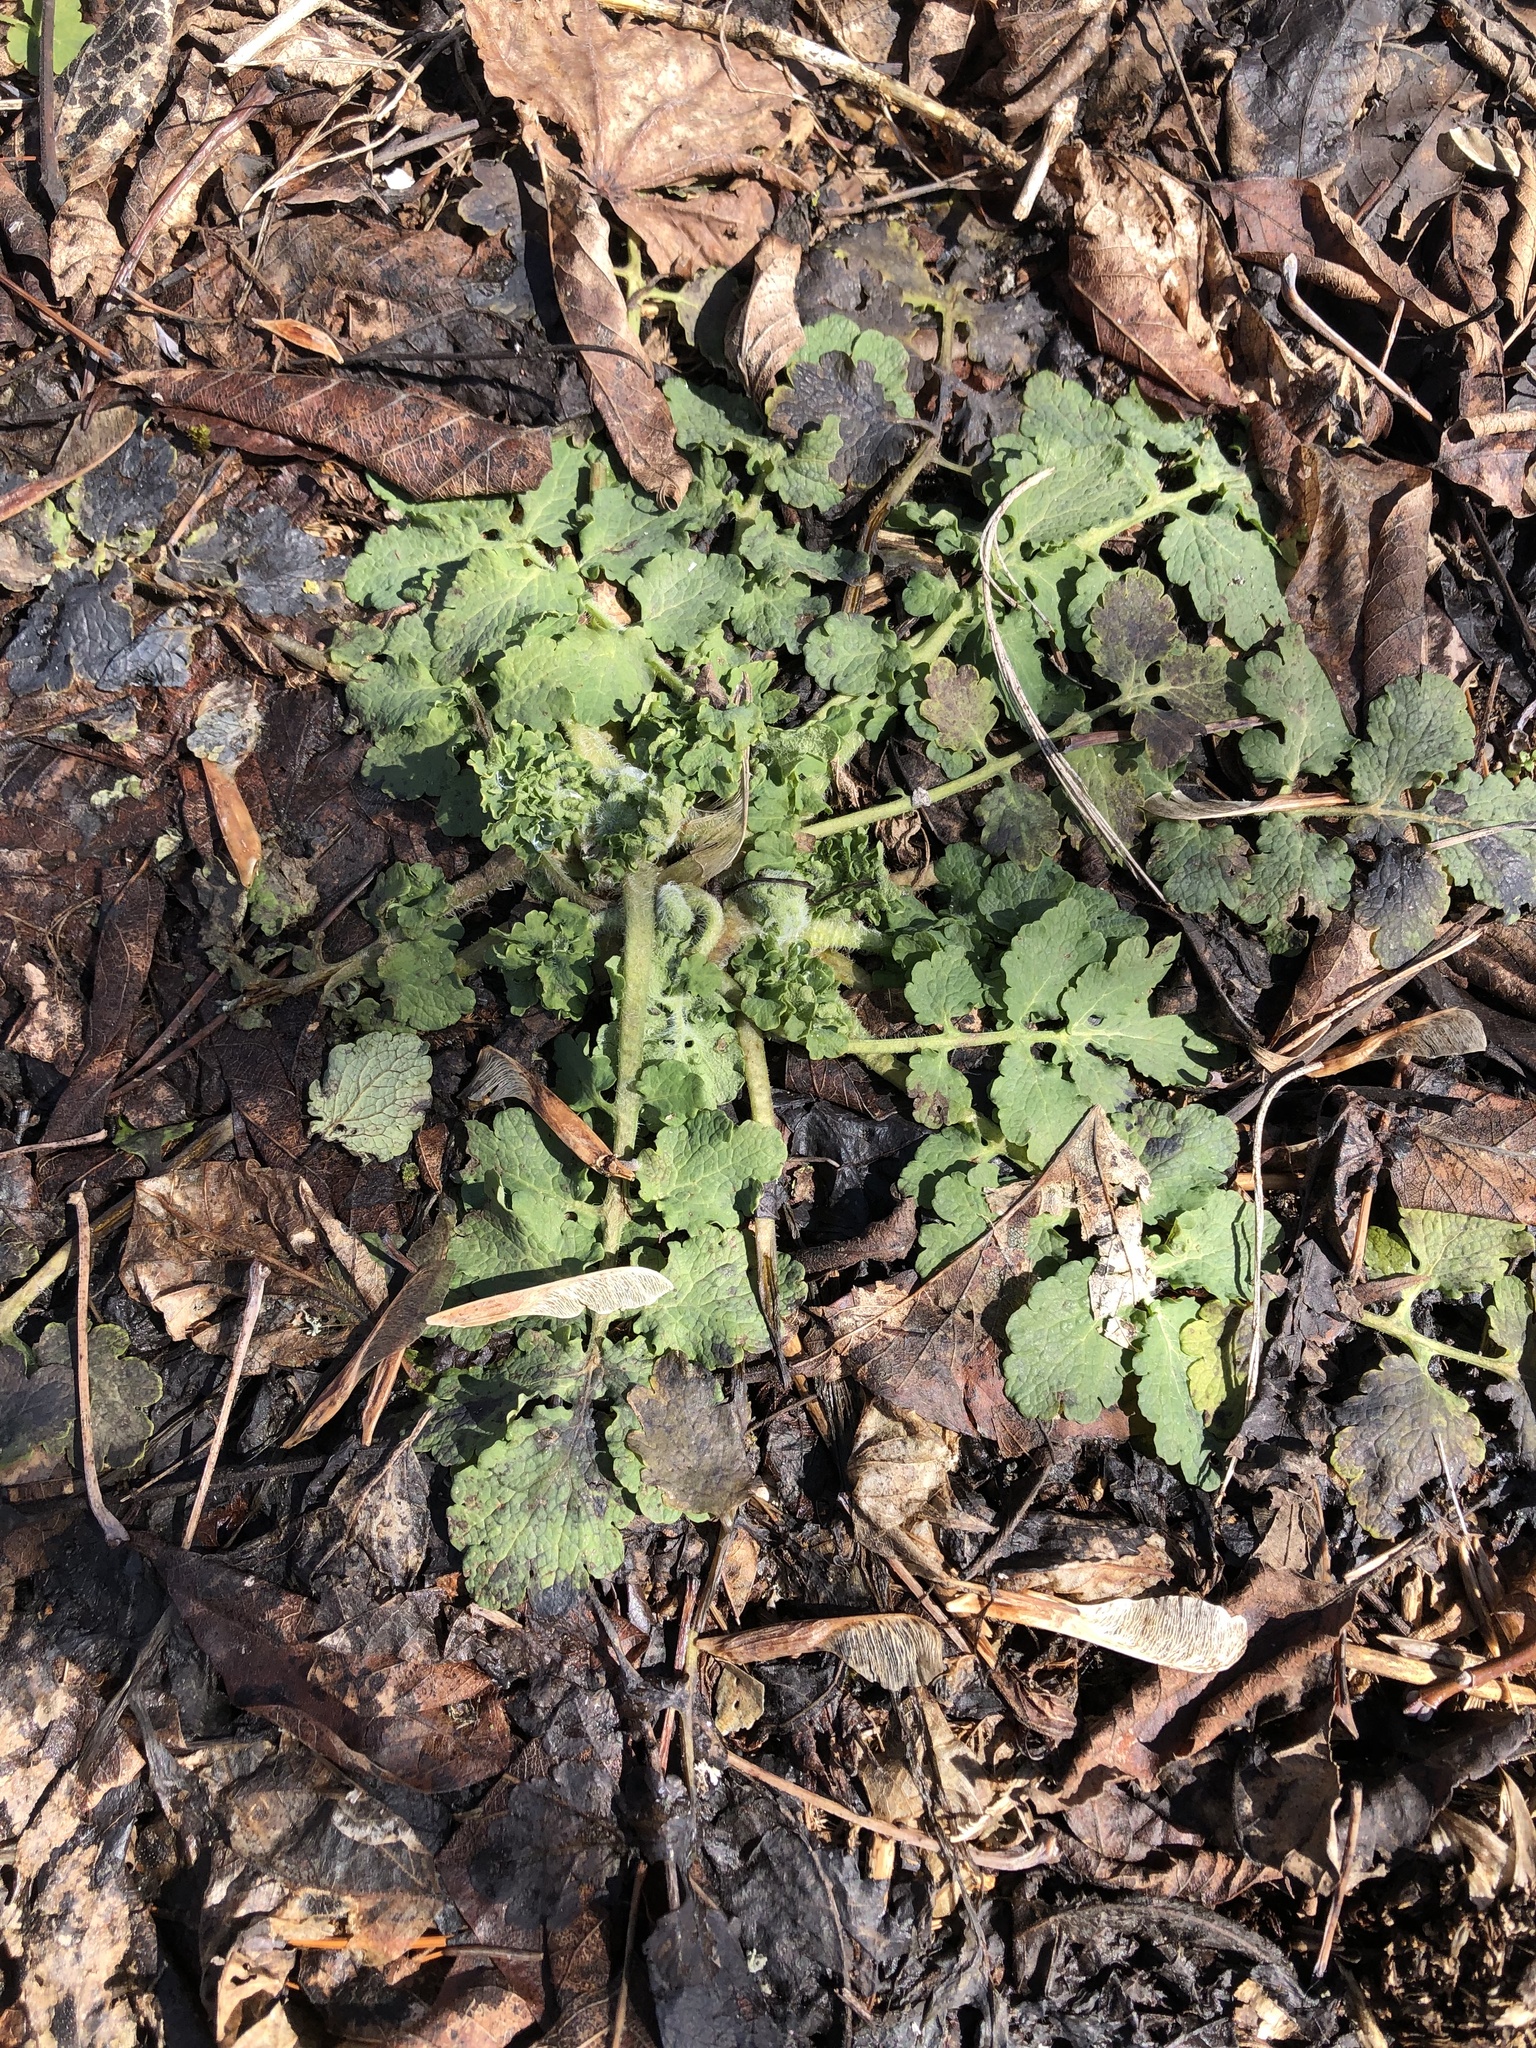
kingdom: Plantae
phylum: Tracheophyta
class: Magnoliopsida
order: Ranunculales
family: Papaveraceae
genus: Chelidonium
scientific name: Chelidonium majus
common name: Greater celandine
